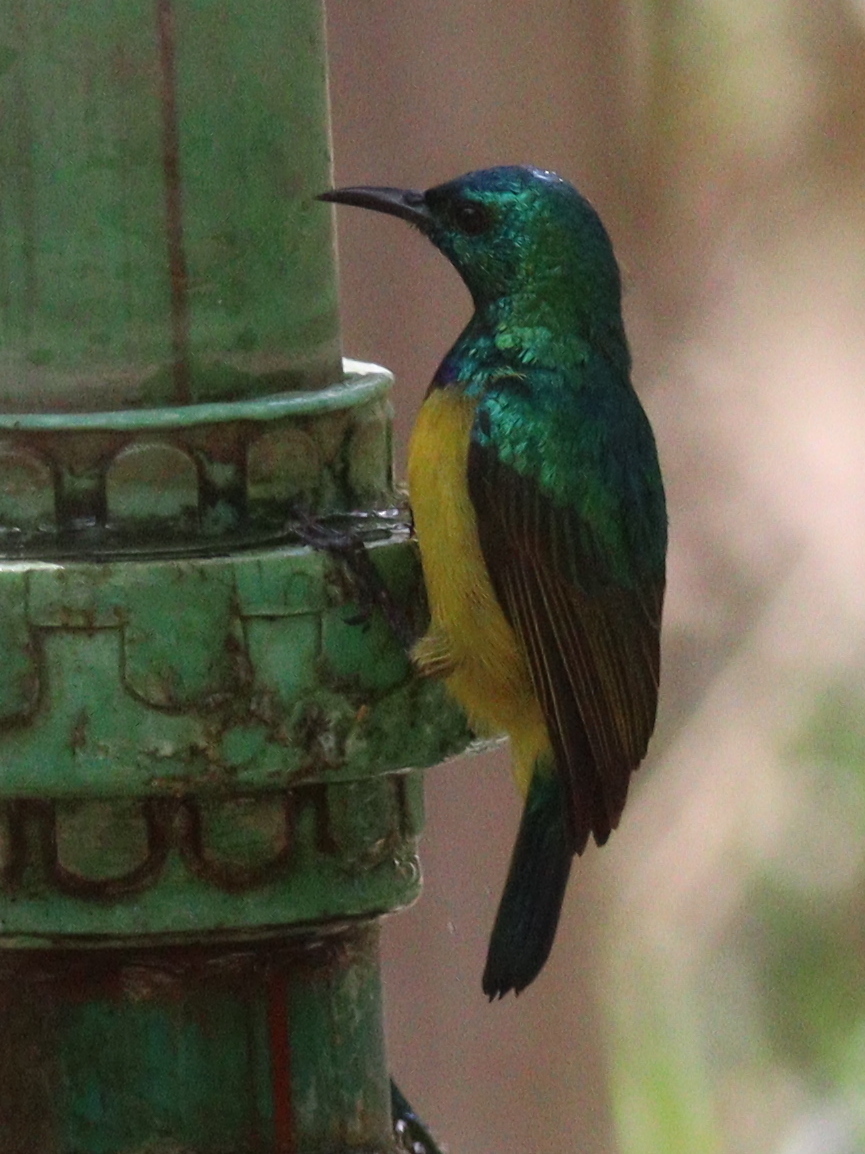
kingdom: Animalia
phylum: Chordata
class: Aves
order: Passeriformes
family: Nectariniidae
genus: Hedydipna
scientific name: Hedydipna collaris
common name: Collared sunbird
